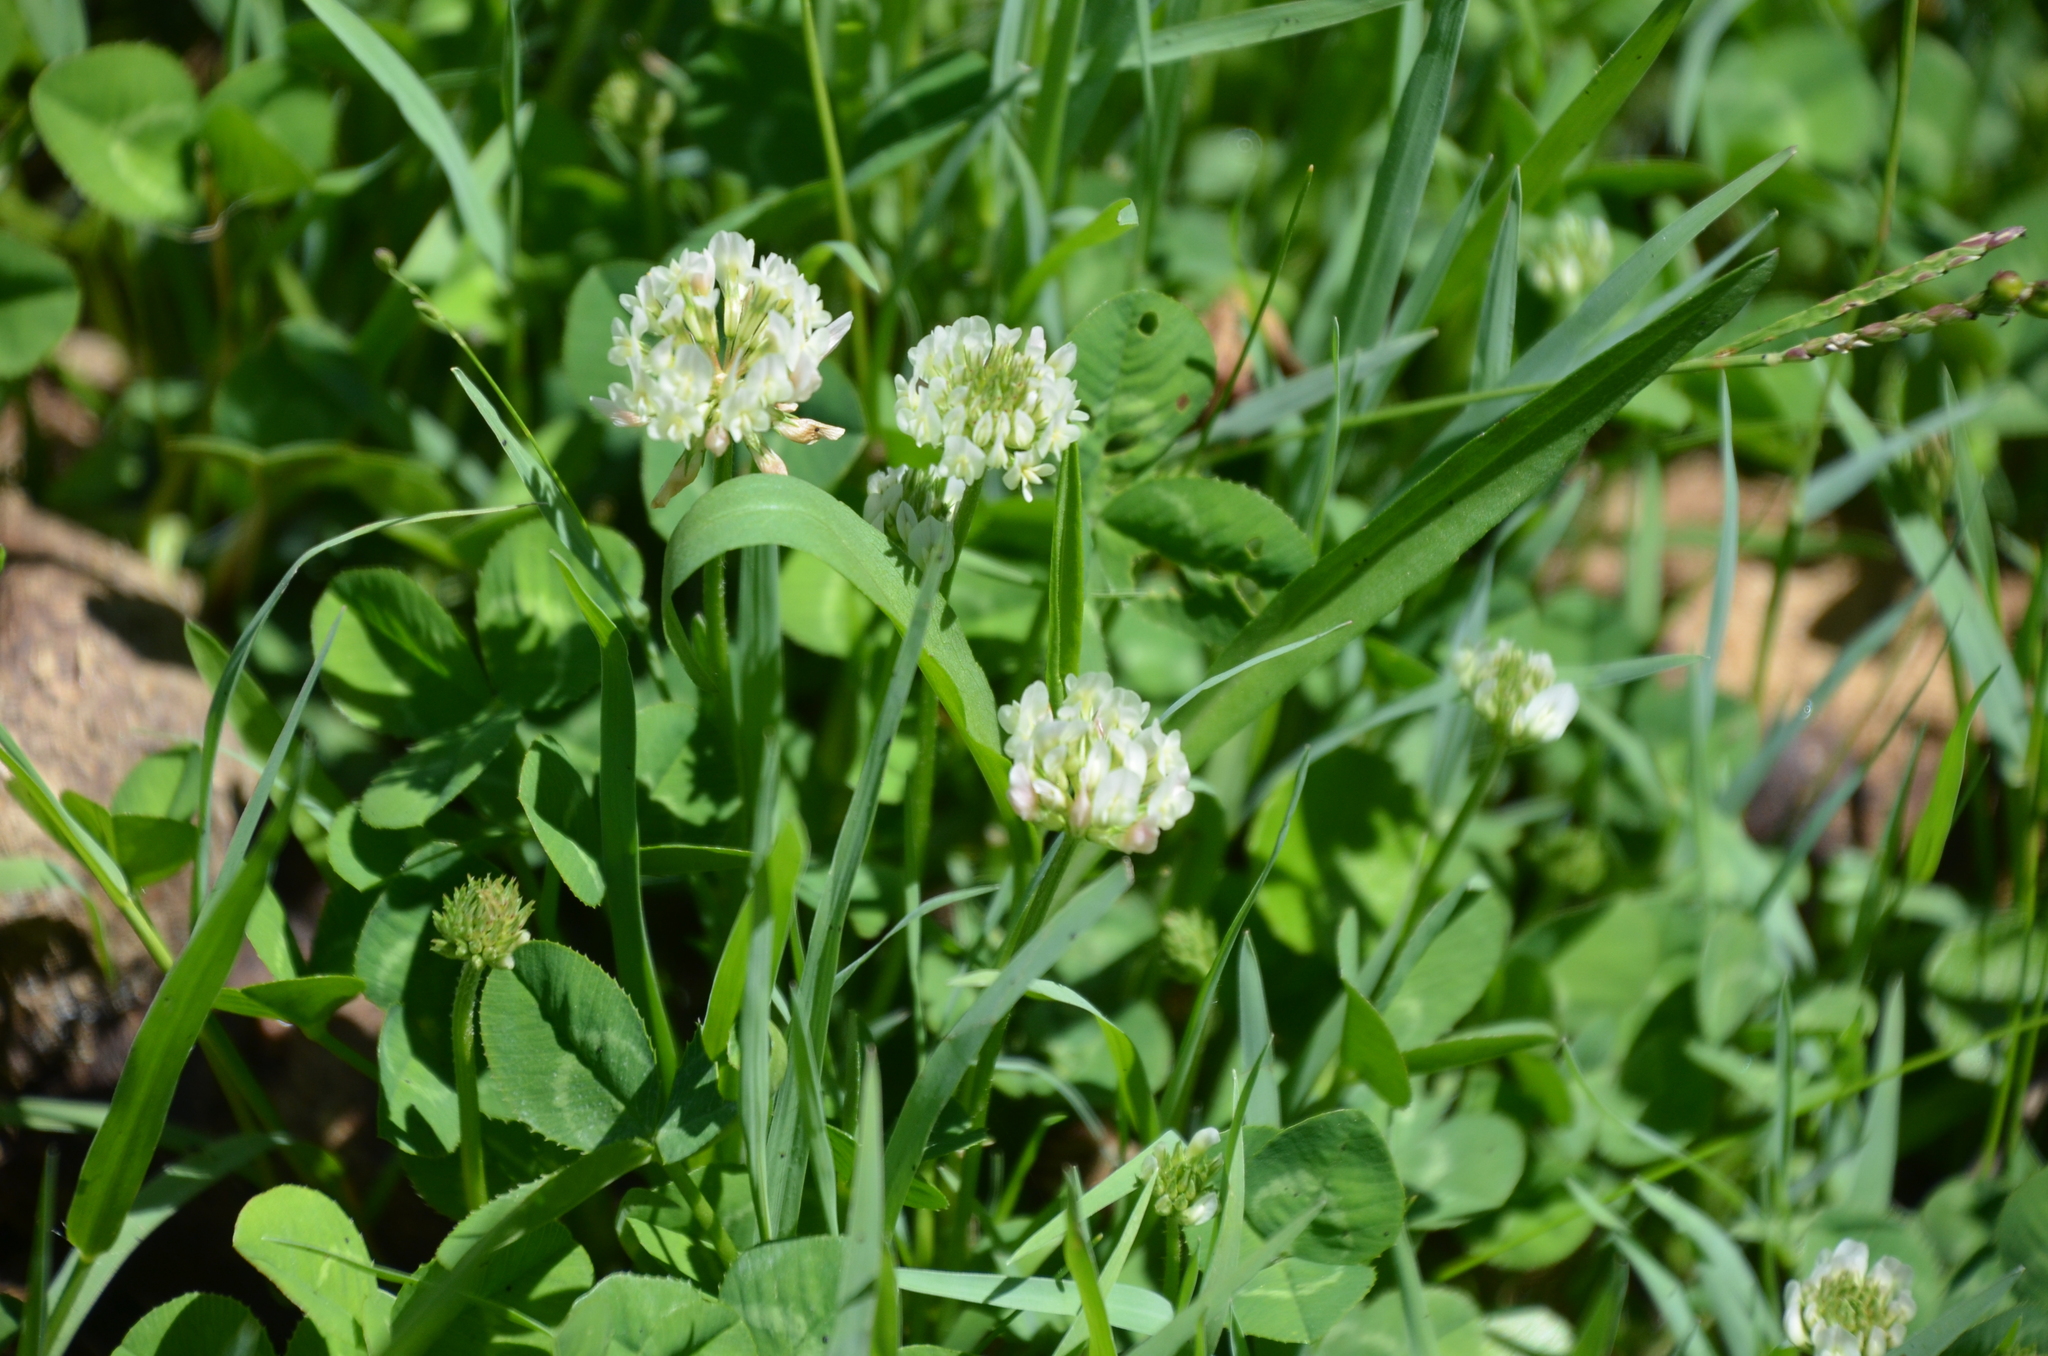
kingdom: Plantae
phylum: Tracheophyta
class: Magnoliopsida
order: Fabales
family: Fabaceae
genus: Trifolium
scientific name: Trifolium repens
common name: White clover
